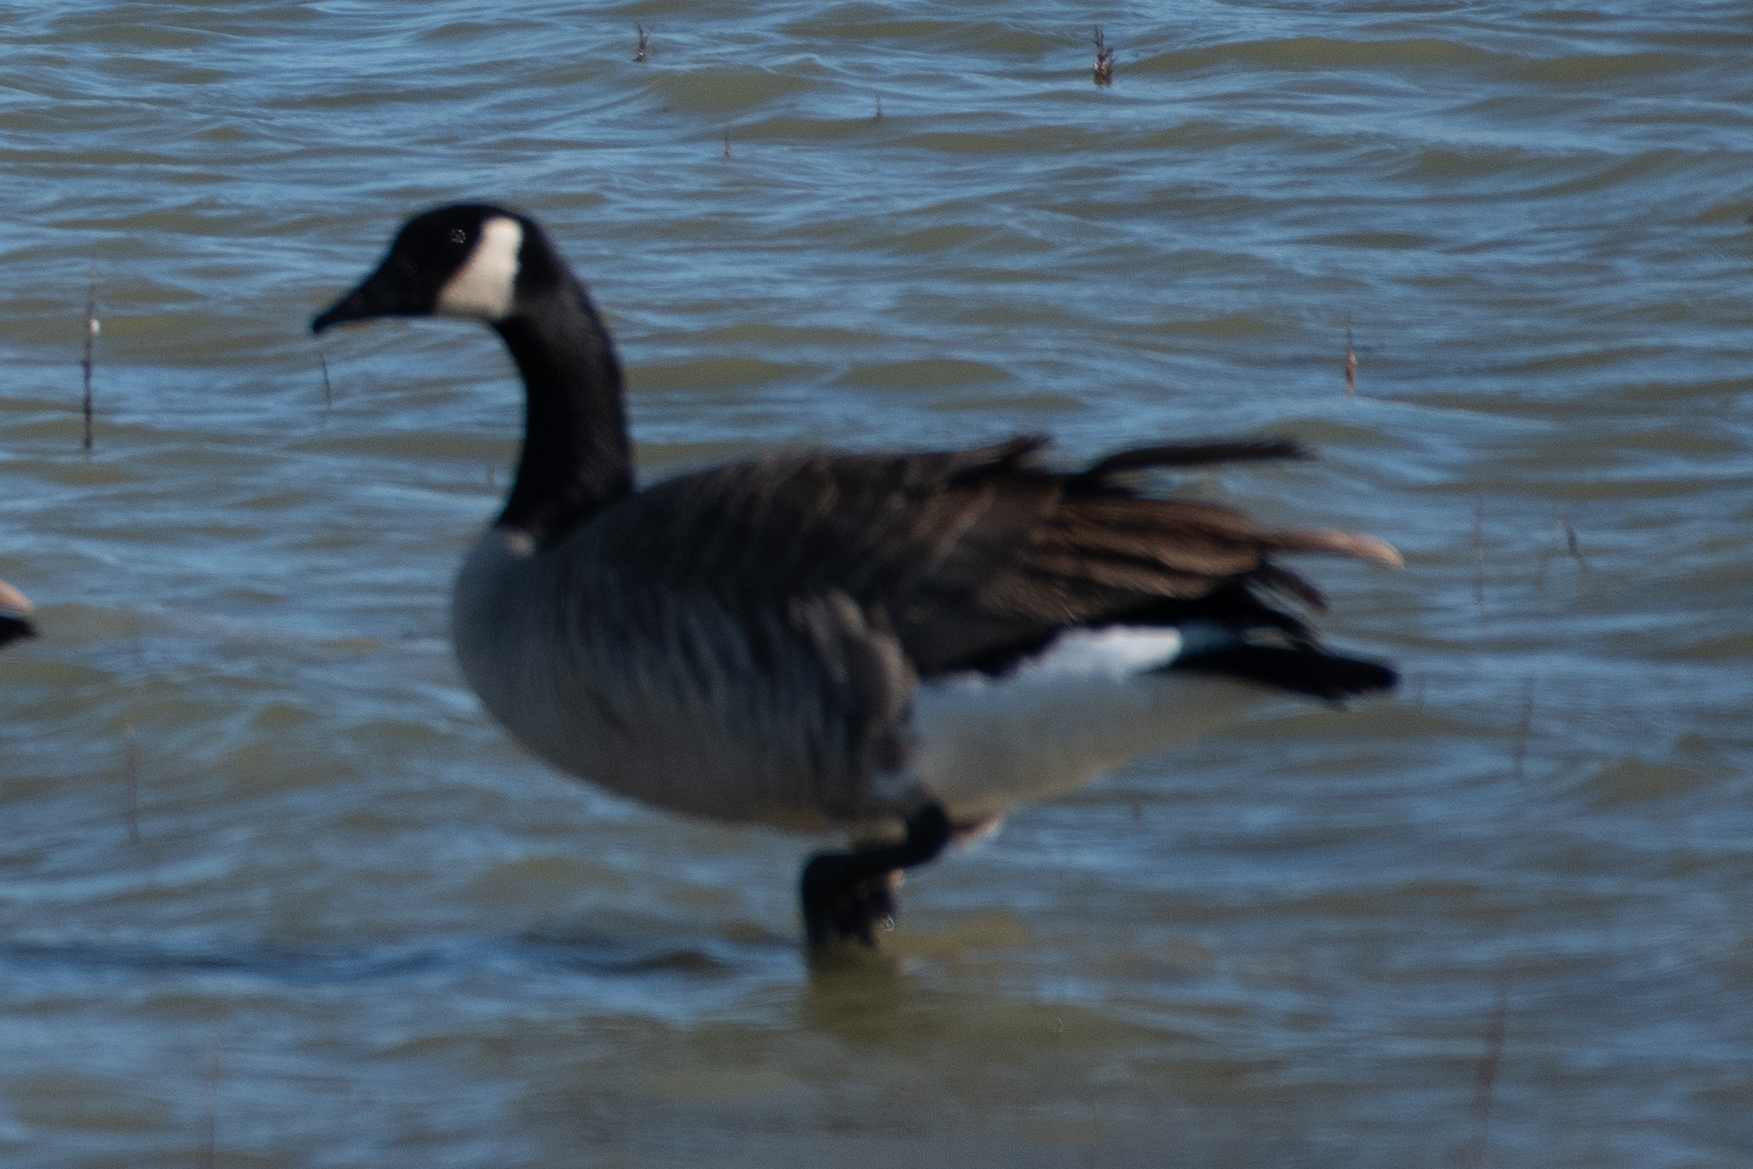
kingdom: Animalia
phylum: Chordata
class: Aves
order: Anseriformes
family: Anatidae
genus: Branta
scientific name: Branta canadensis
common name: Canada goose
